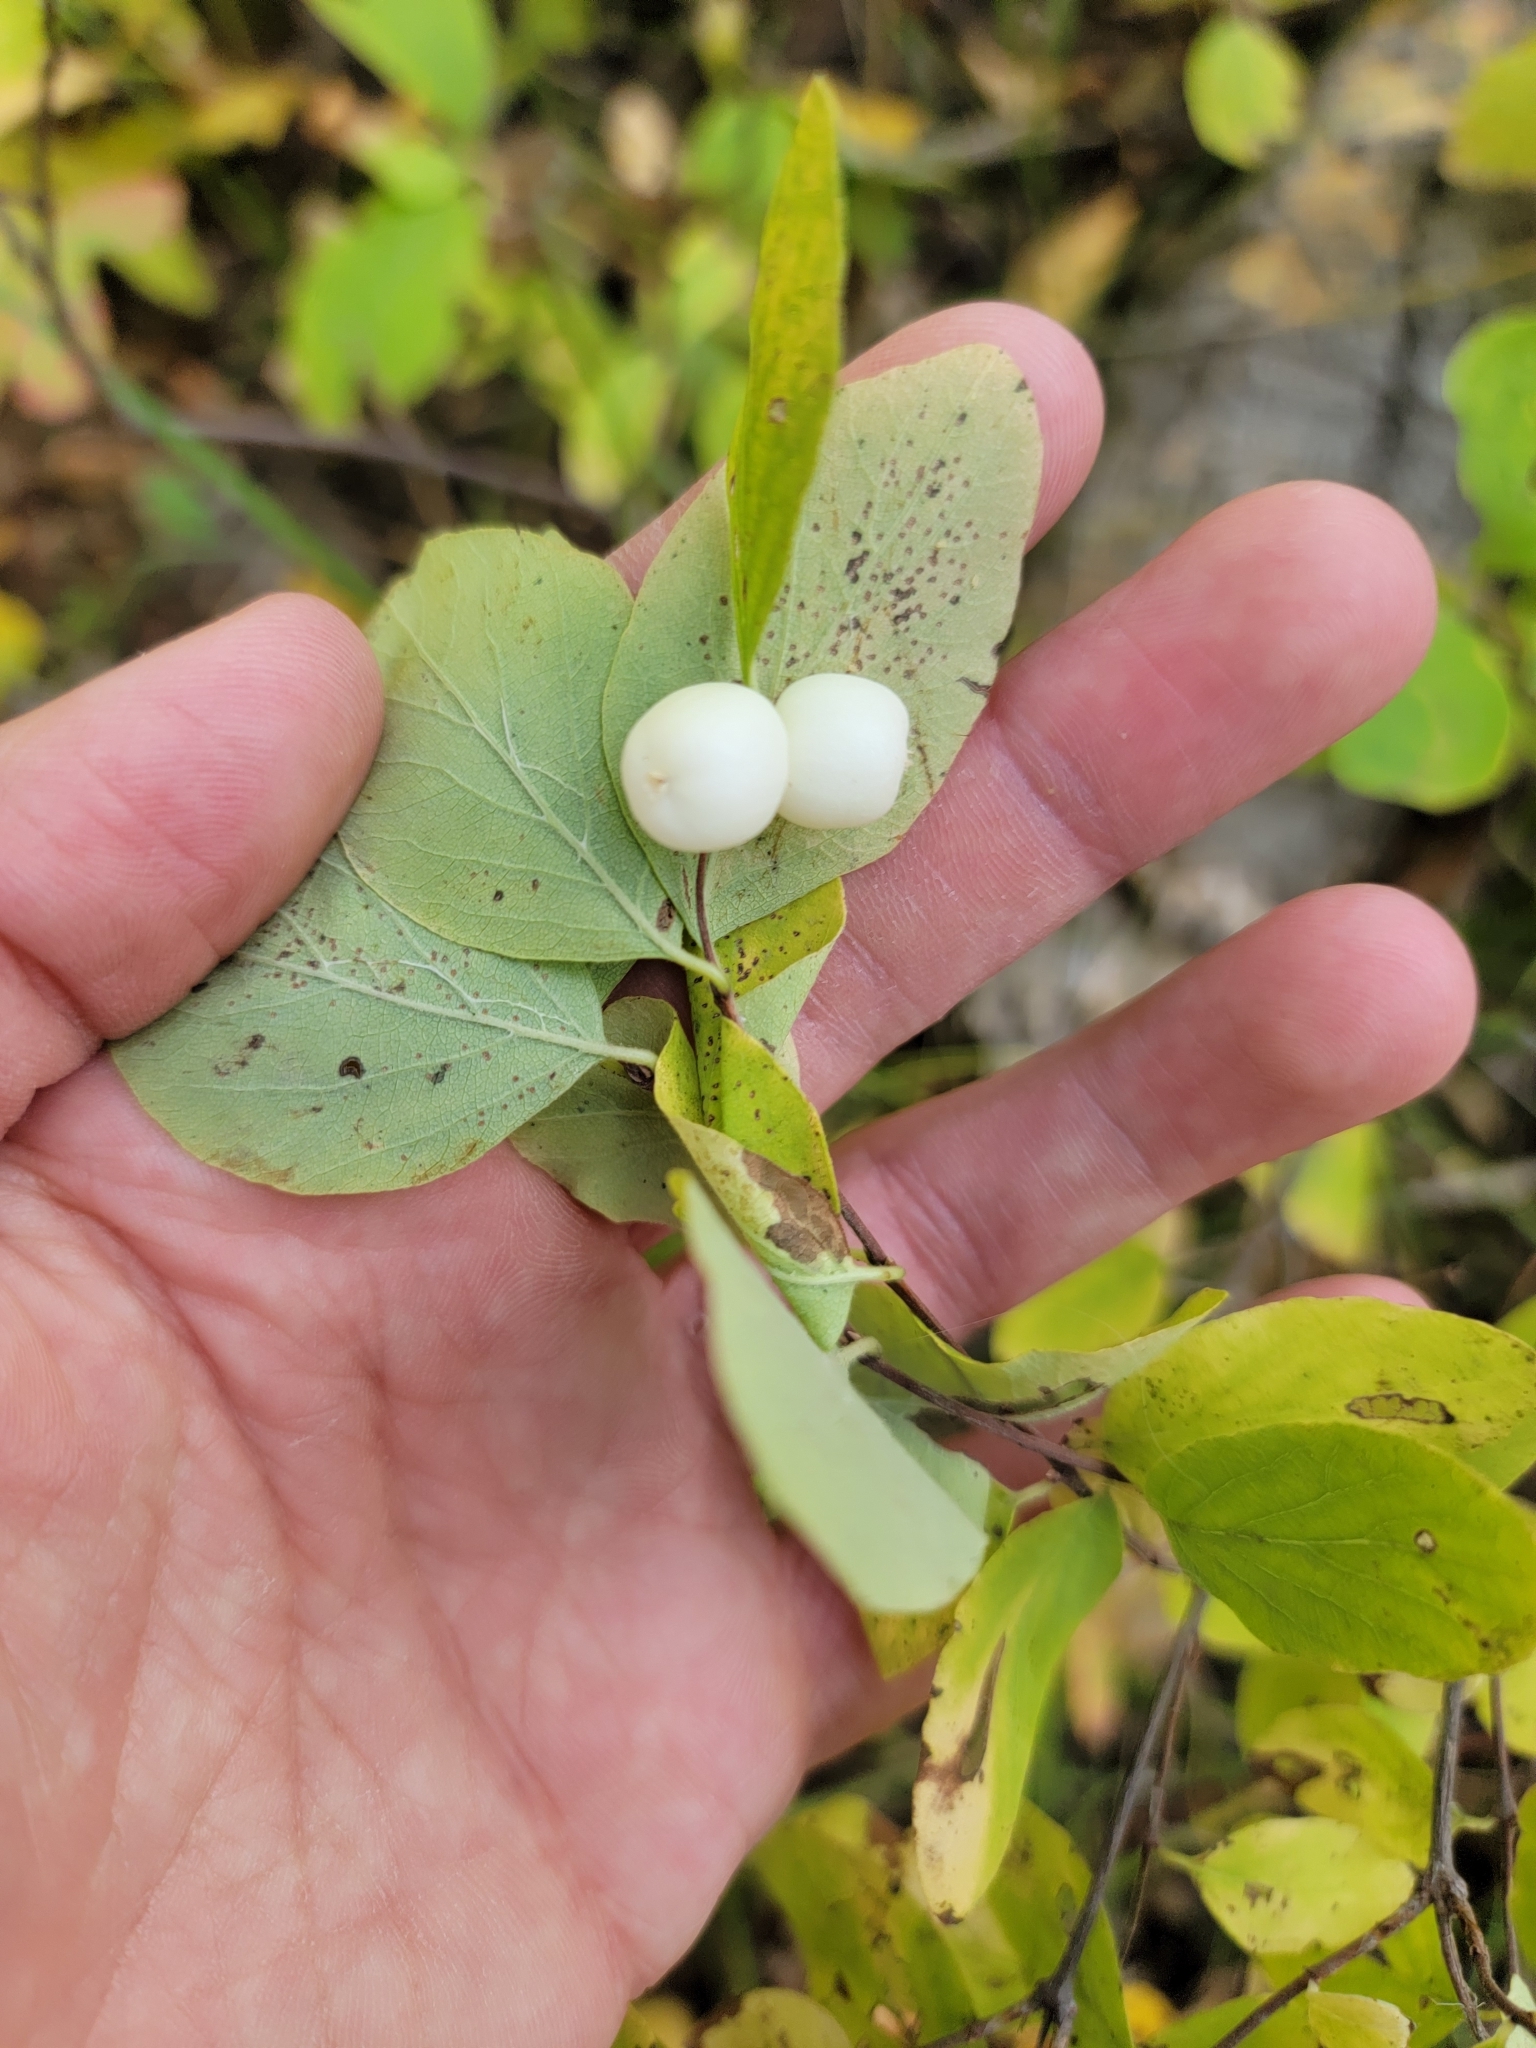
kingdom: Plantae
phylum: Tracheophyta
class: Magnoliopsida
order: Dipsacales
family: Caprifoliaceae
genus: Symphoricarpos
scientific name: Symphoricarpos albus
